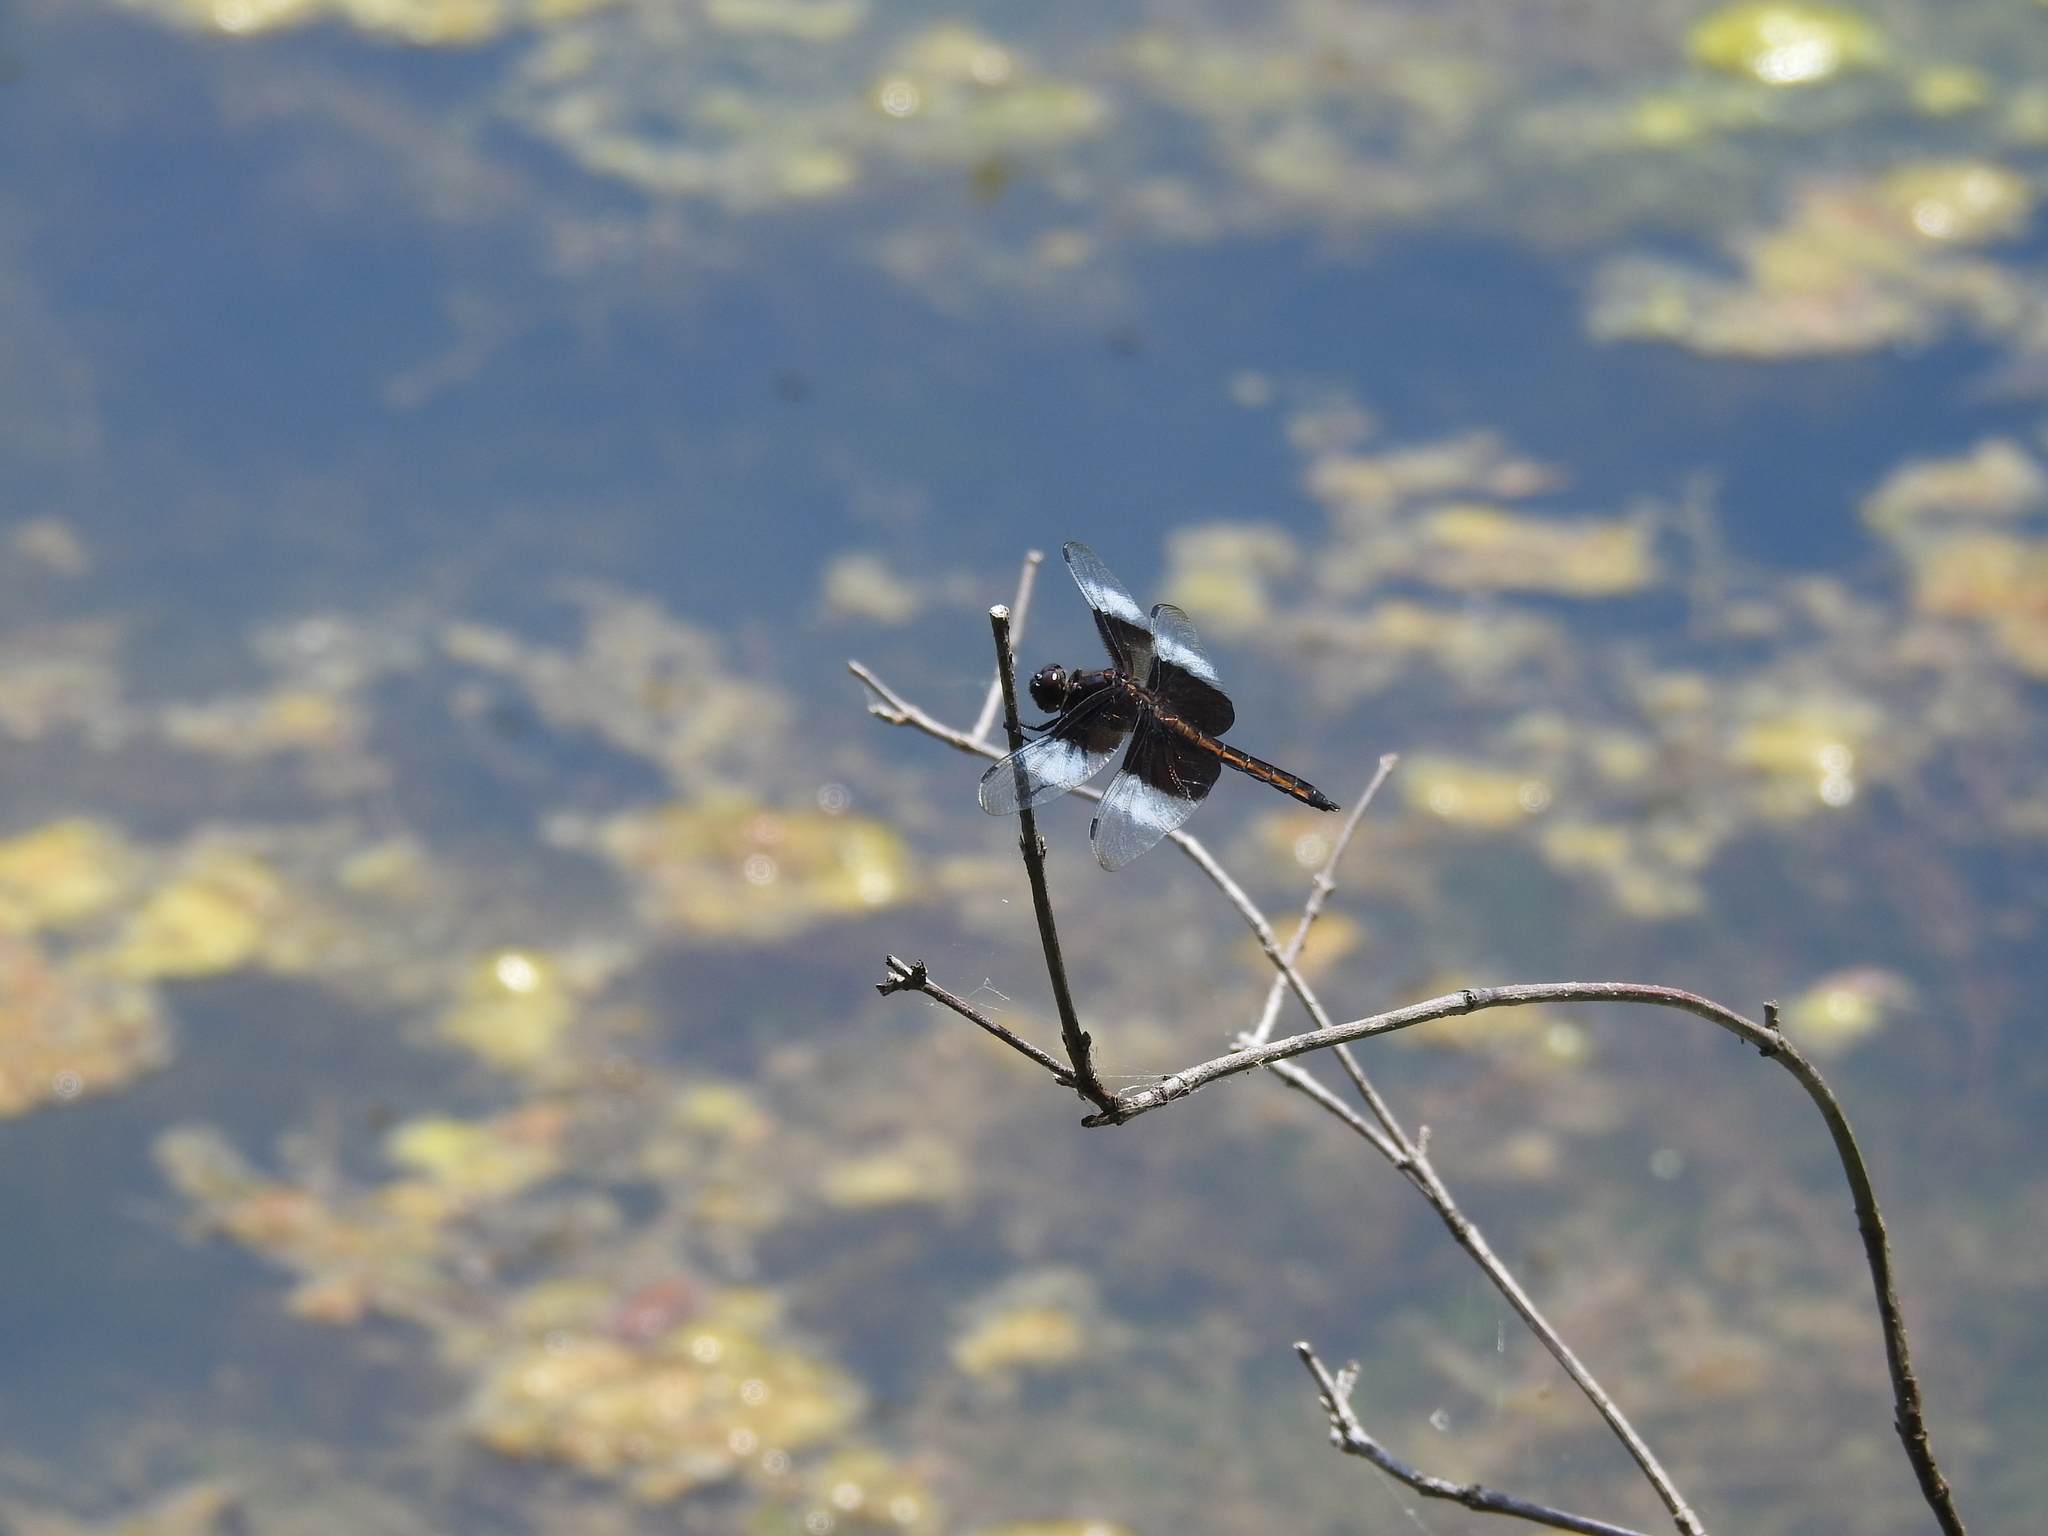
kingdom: Animalia
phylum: Arthropoda
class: Insecta
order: Odonata
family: Libellulidae
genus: Libellula
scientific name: Libellula luctuosa
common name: Widow skimmer
